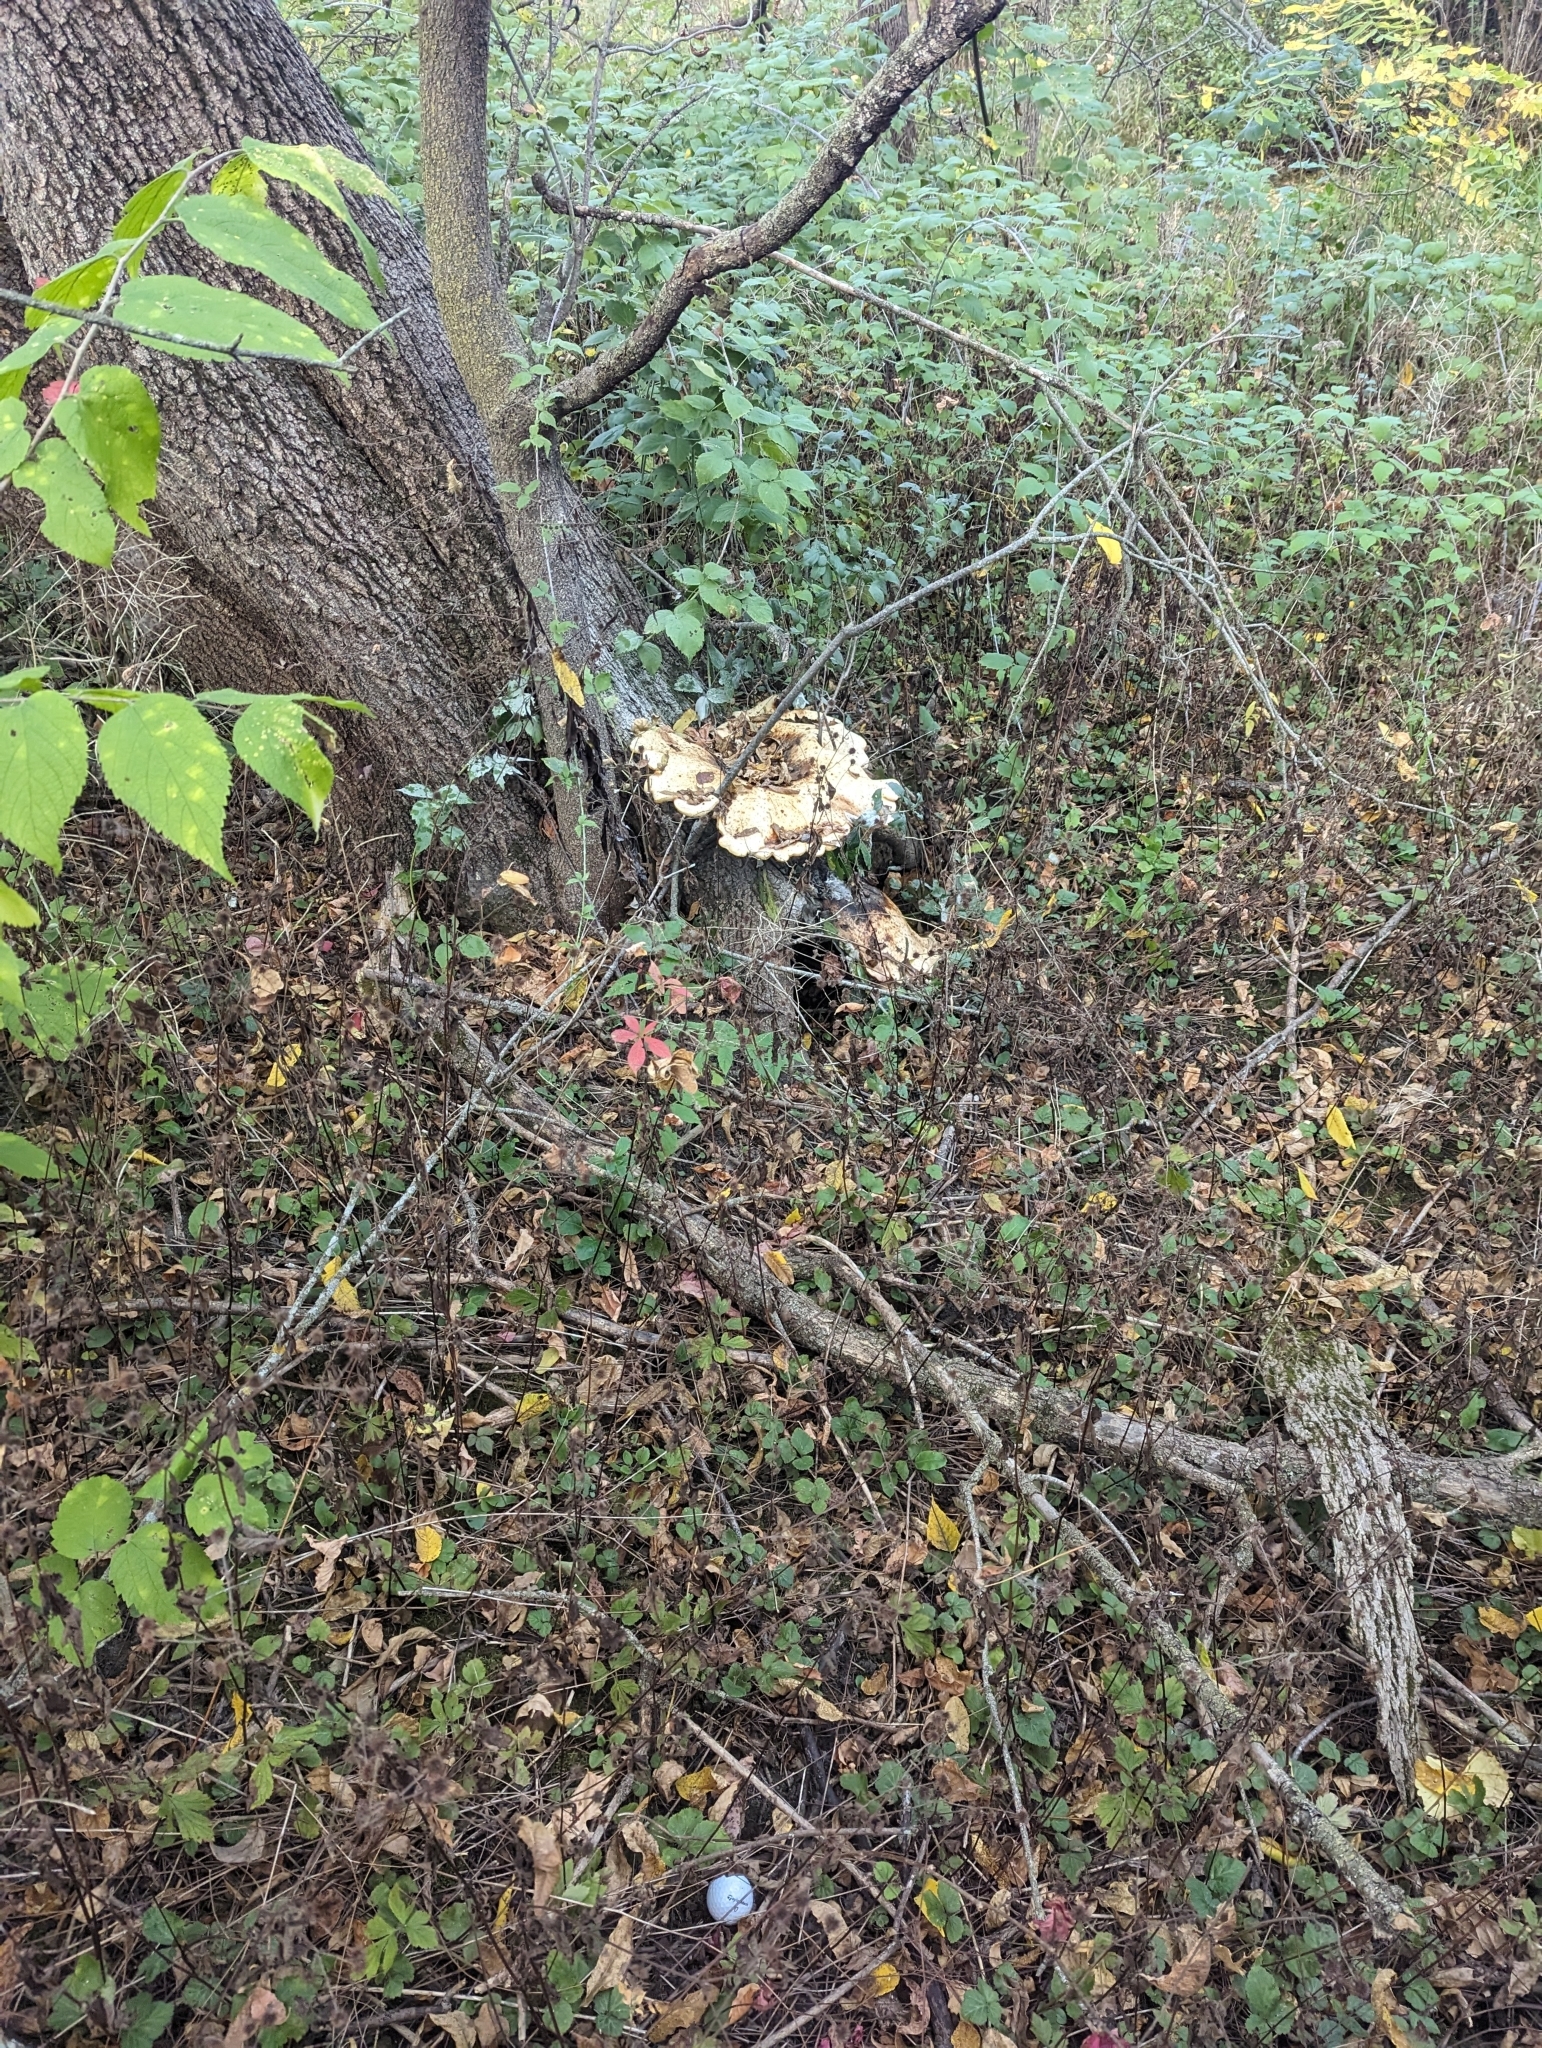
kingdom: Fungi
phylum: Basidiomycota
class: Agaricomycetes
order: Polyporales
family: Polyporaceae
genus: Cerioporus
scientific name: Cerioporus squamosus
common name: Dryad's saddle
